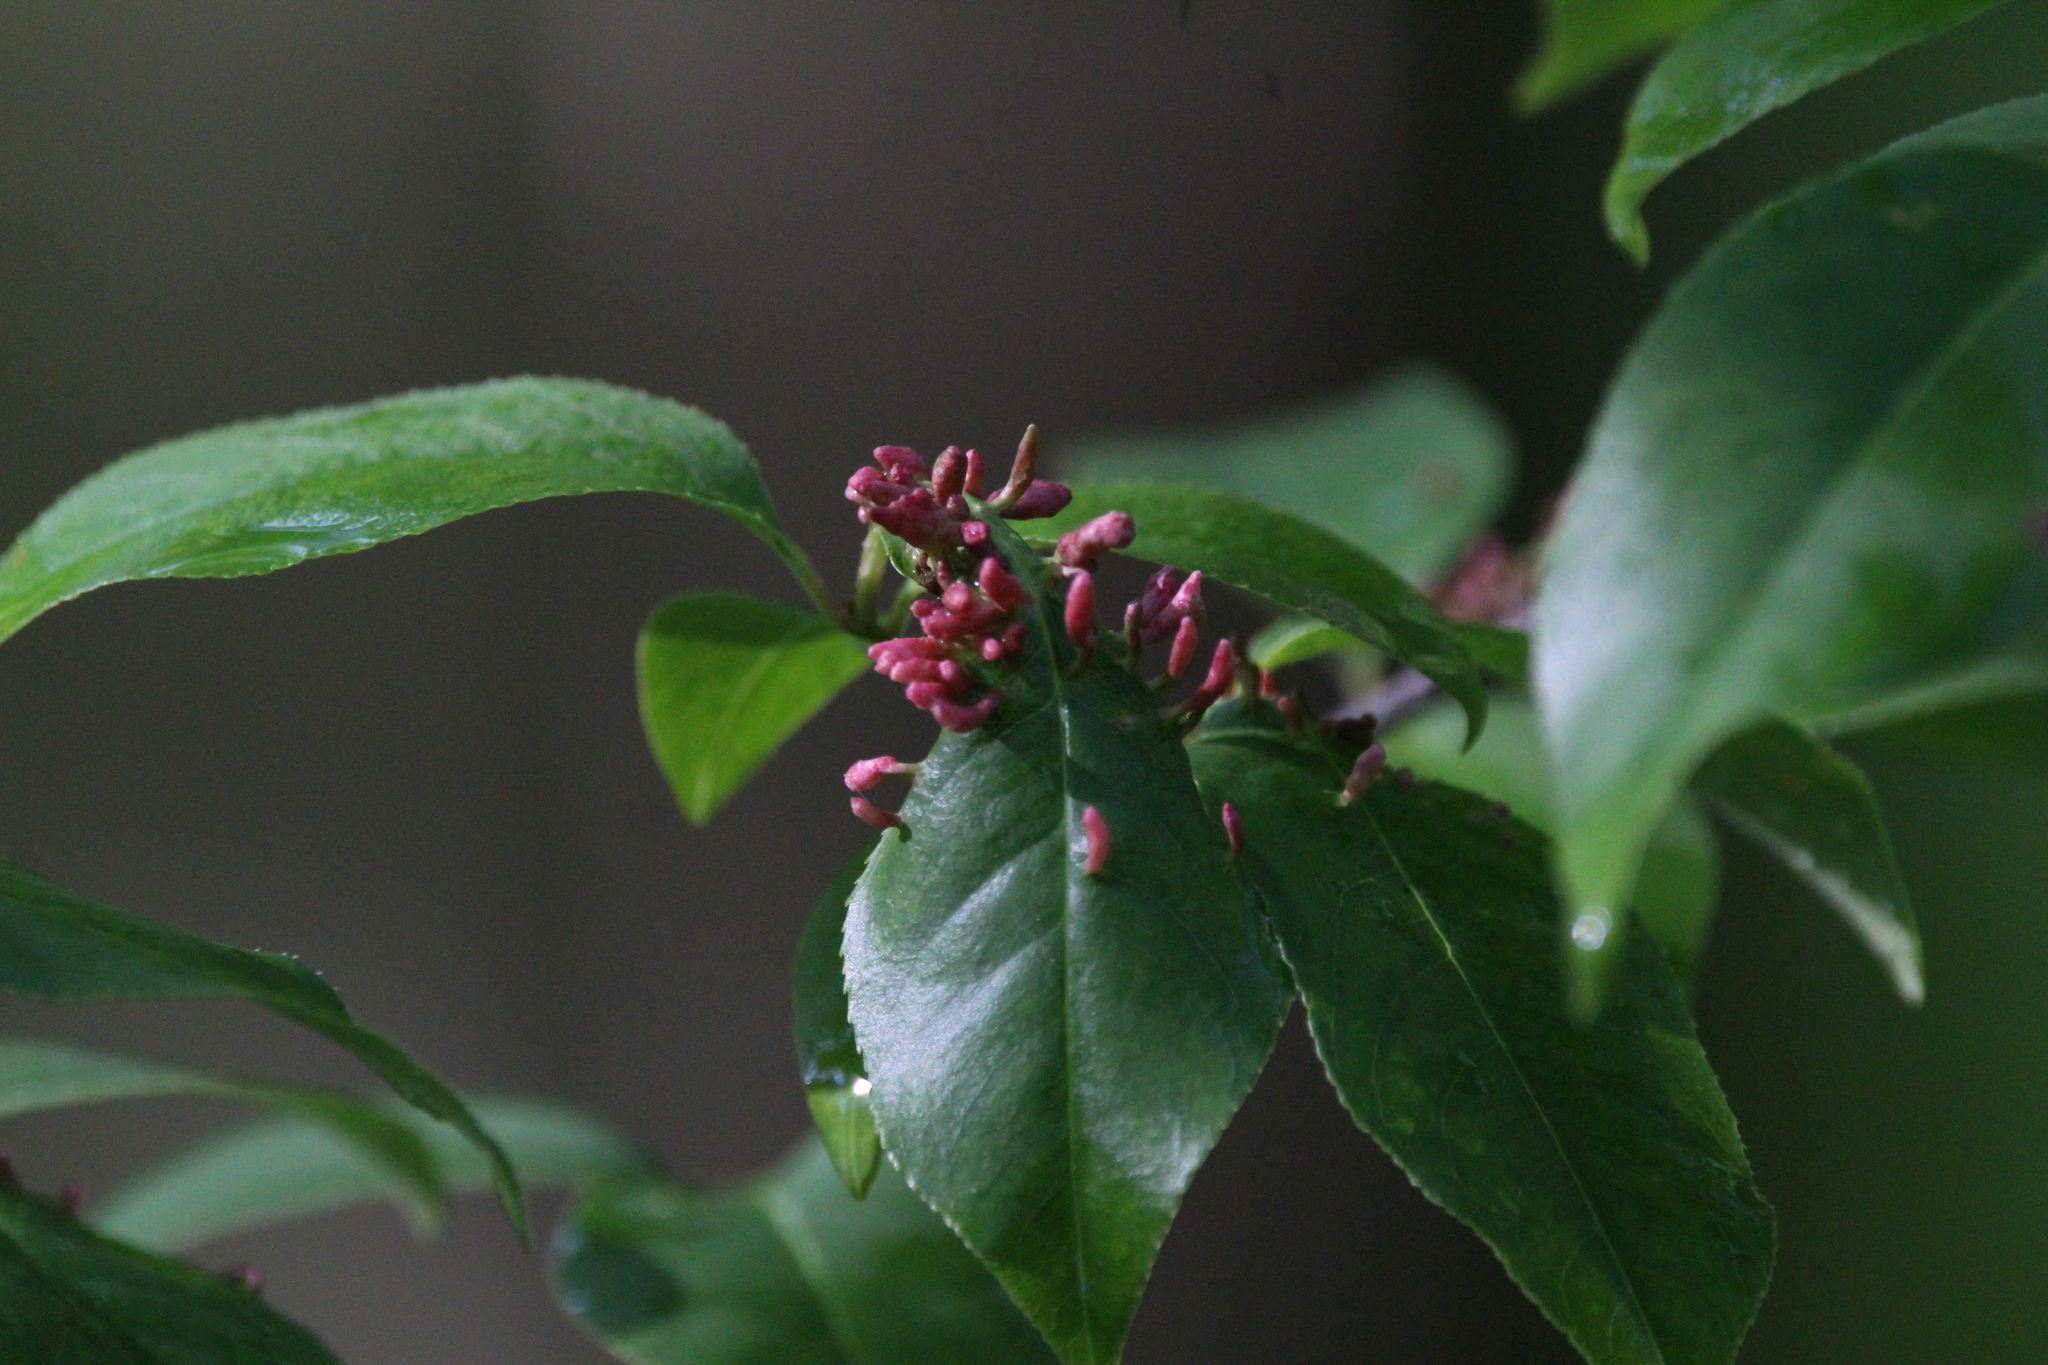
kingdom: Animalia
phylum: Arthropoda
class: Arachnida
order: Trombidiformes
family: Eriophyidae
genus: Eriophyes
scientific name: Eriophyes
